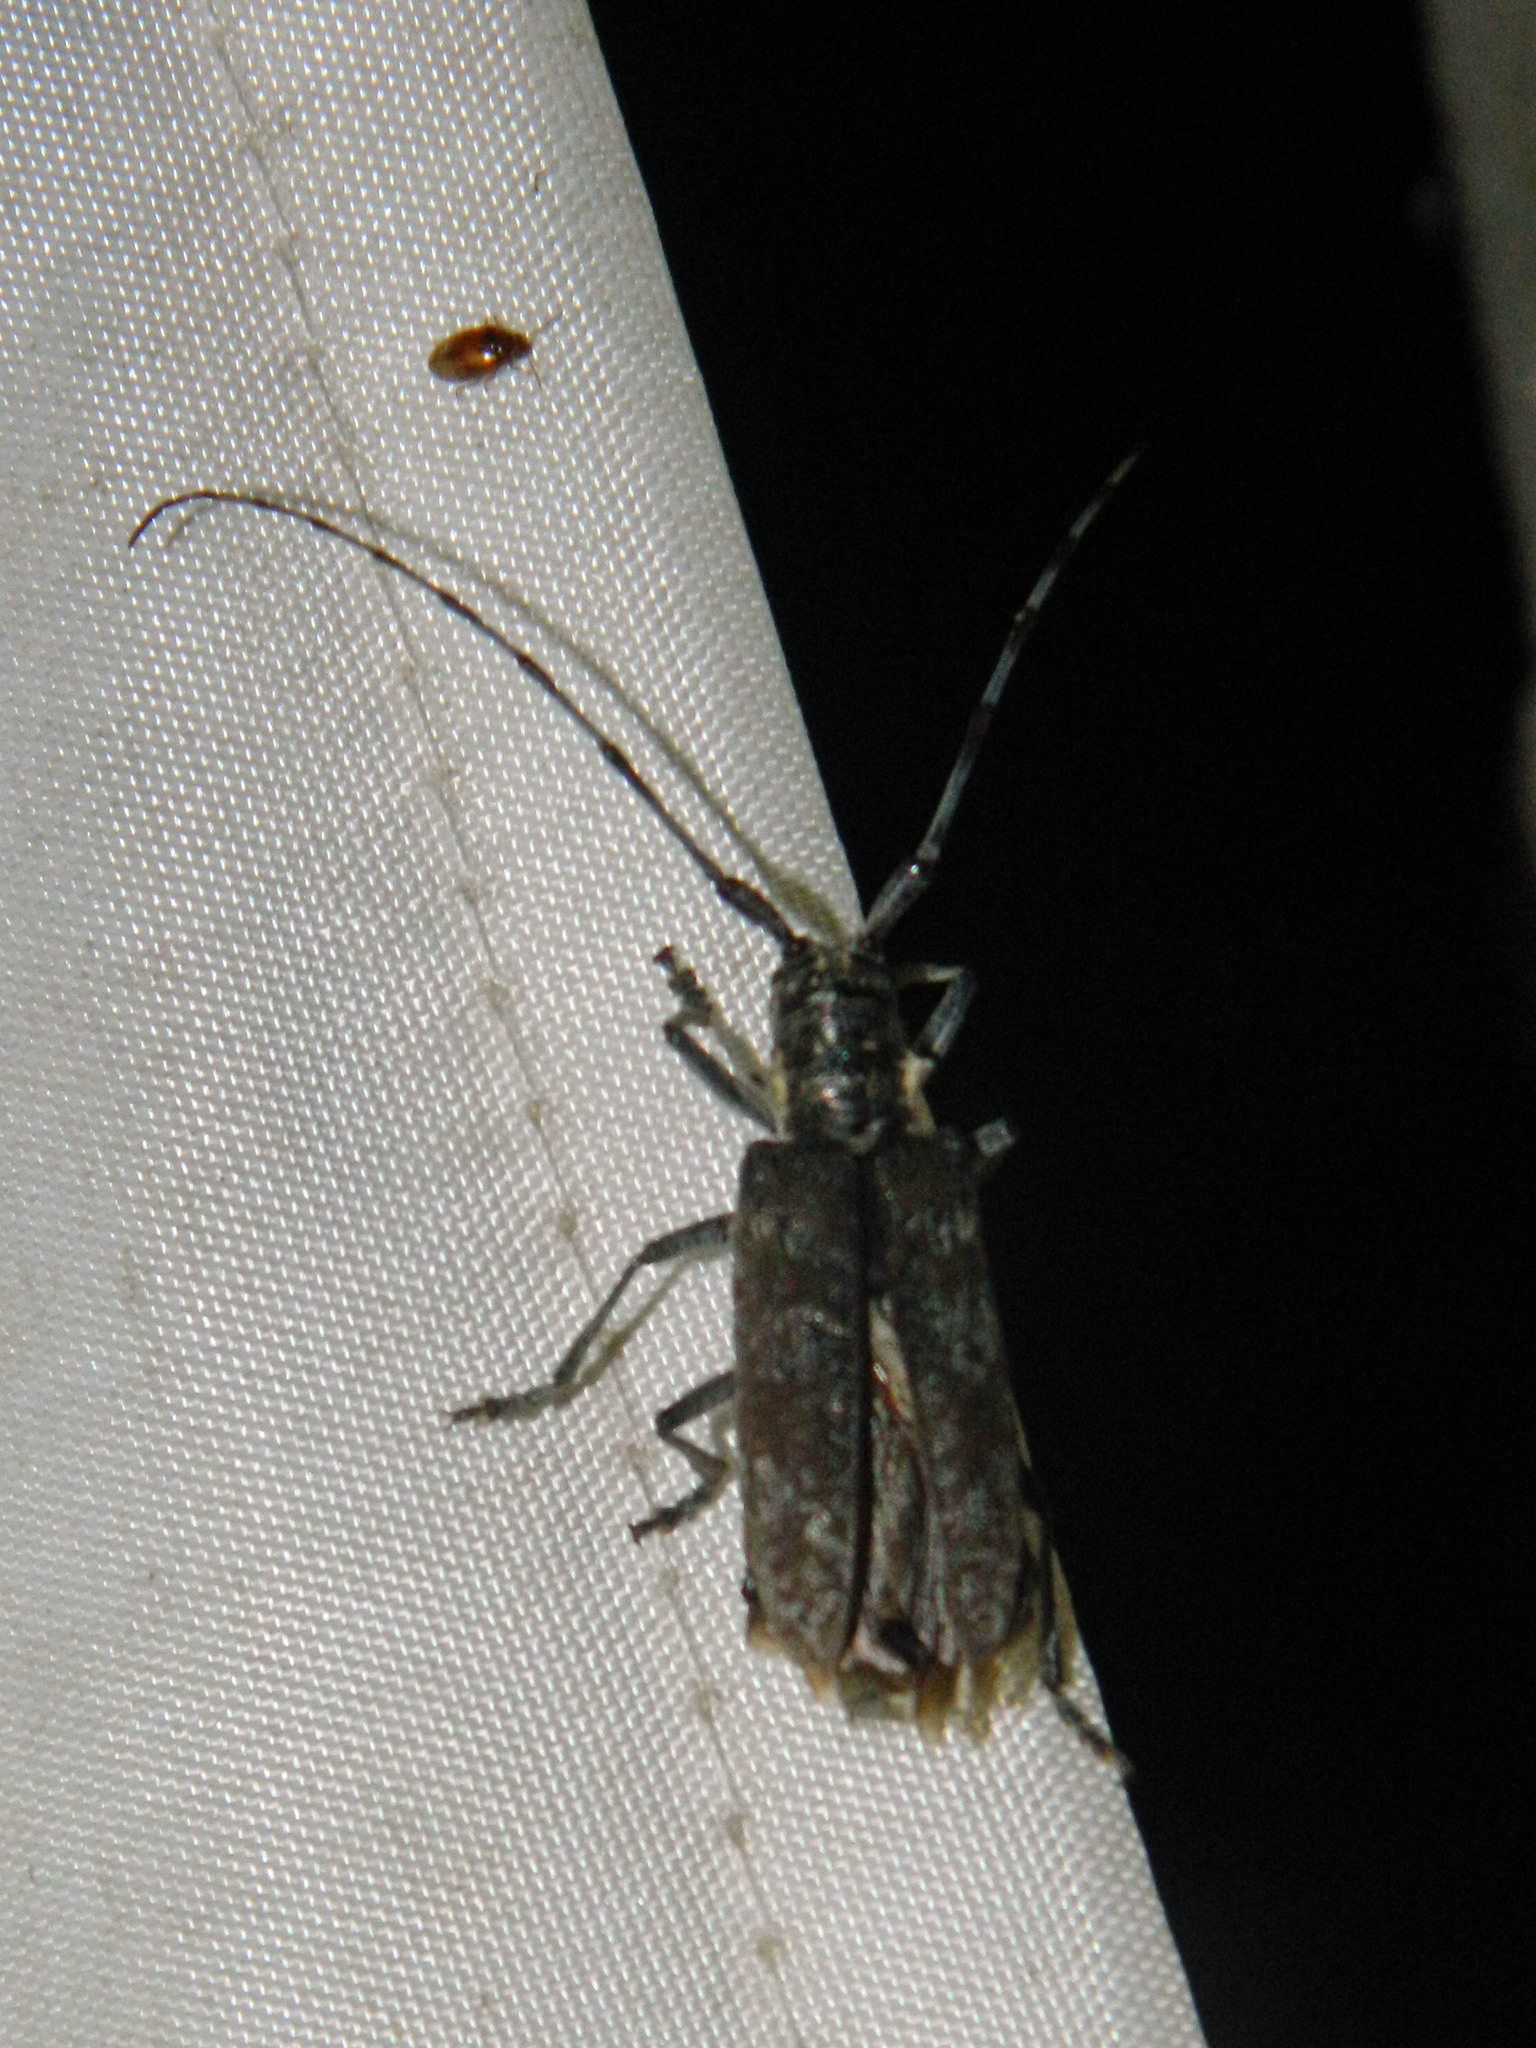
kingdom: Animalia
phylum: Arthropoda
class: Insecta
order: Coleoptera
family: Cerambycidae
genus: Monochamus
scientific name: Monochamus
